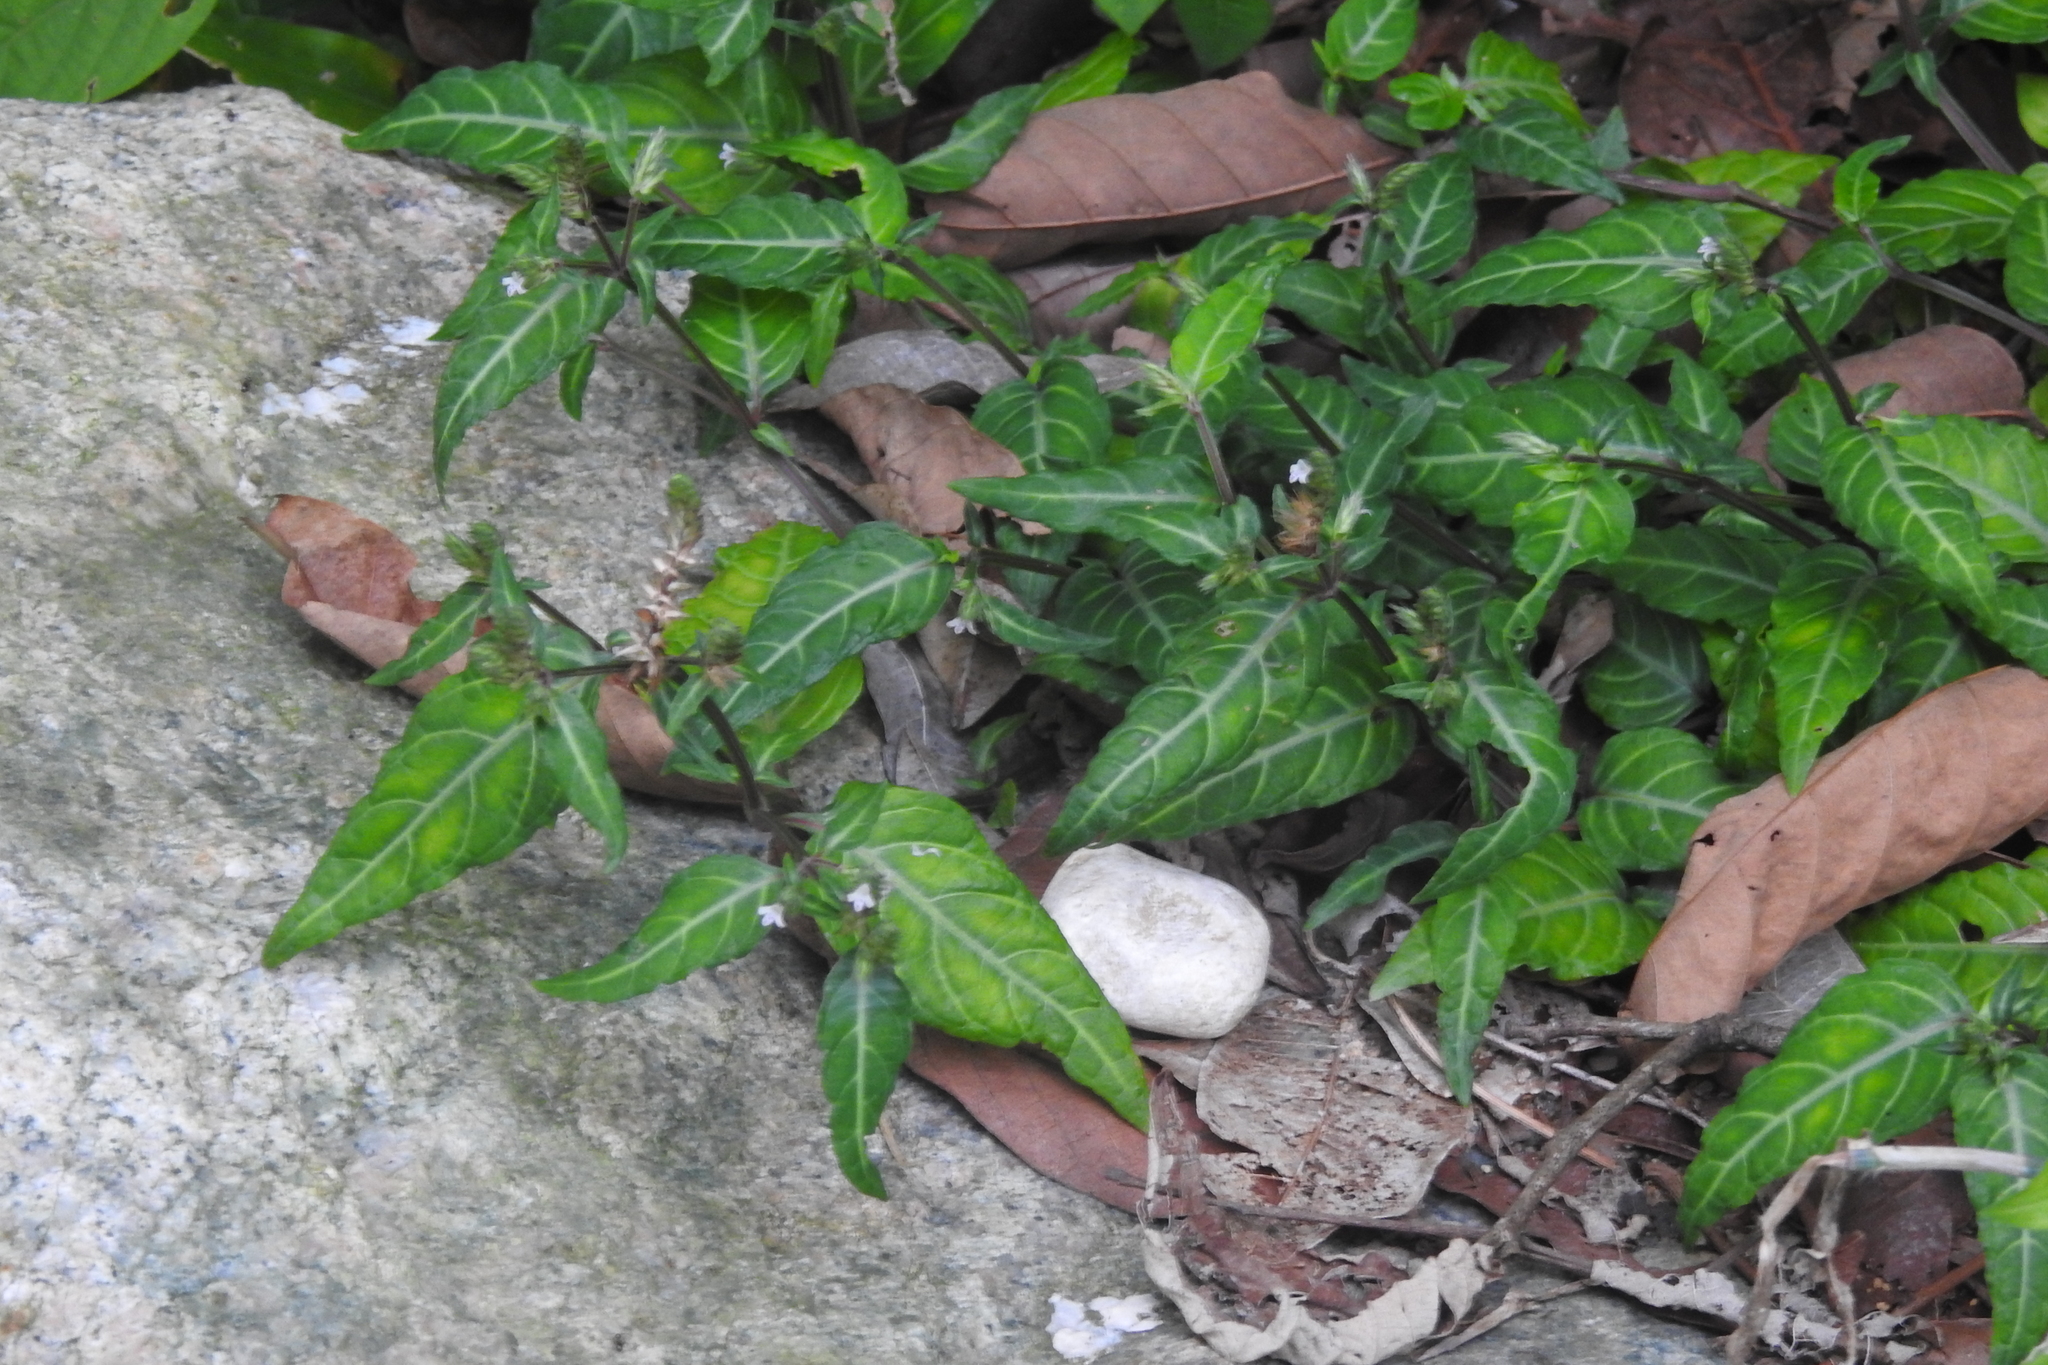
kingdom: Plantae
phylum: Tracheophyta
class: Magnoliopsida
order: Lamiales
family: Acanthaceae
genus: Lepidagathis
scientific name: Lepidagathis incurva
